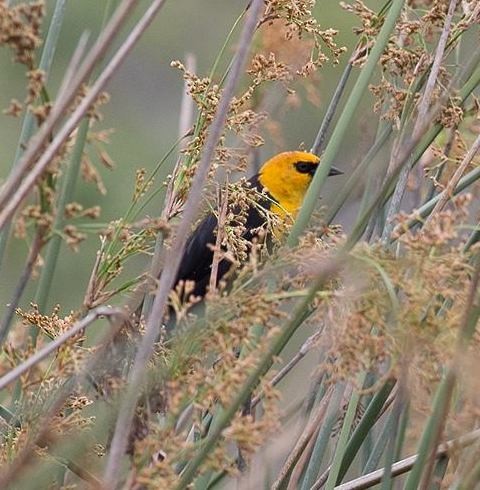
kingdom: Animalia
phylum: Chordata
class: Aves
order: Passeriformes
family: Icteridae
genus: Xanthocephalus
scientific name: Xanthocephalus xanthocephalus
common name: Yellow-headed blackbird
